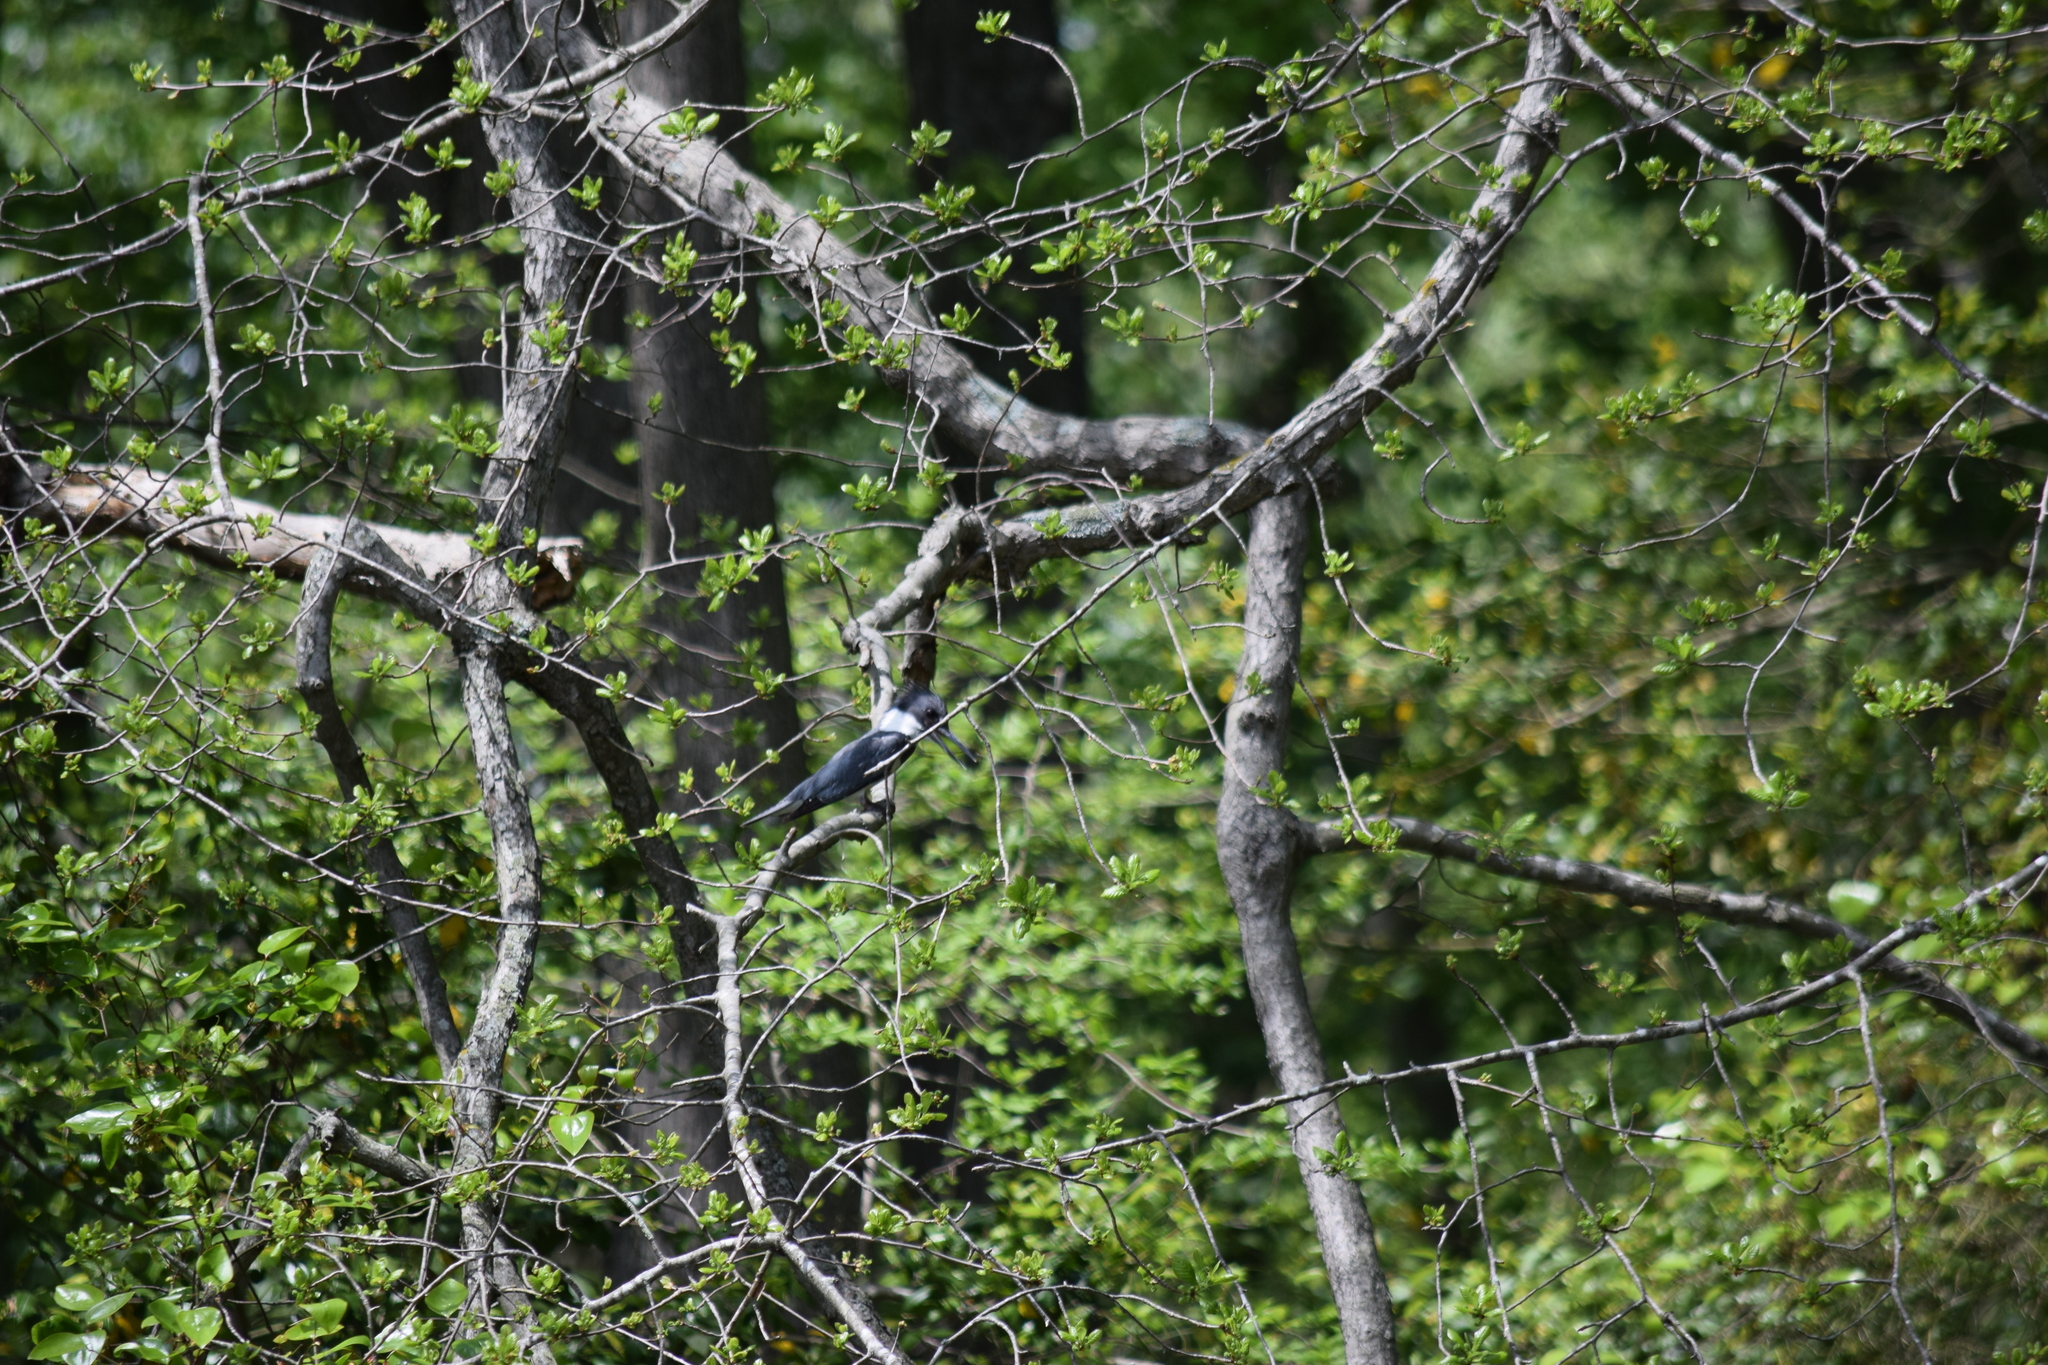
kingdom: Animalia
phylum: Chordata
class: Aves
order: Coraciiformes
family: Alcedinidae
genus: Megaceryle
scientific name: Megaceryle alcyon
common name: Belted kingfisher
